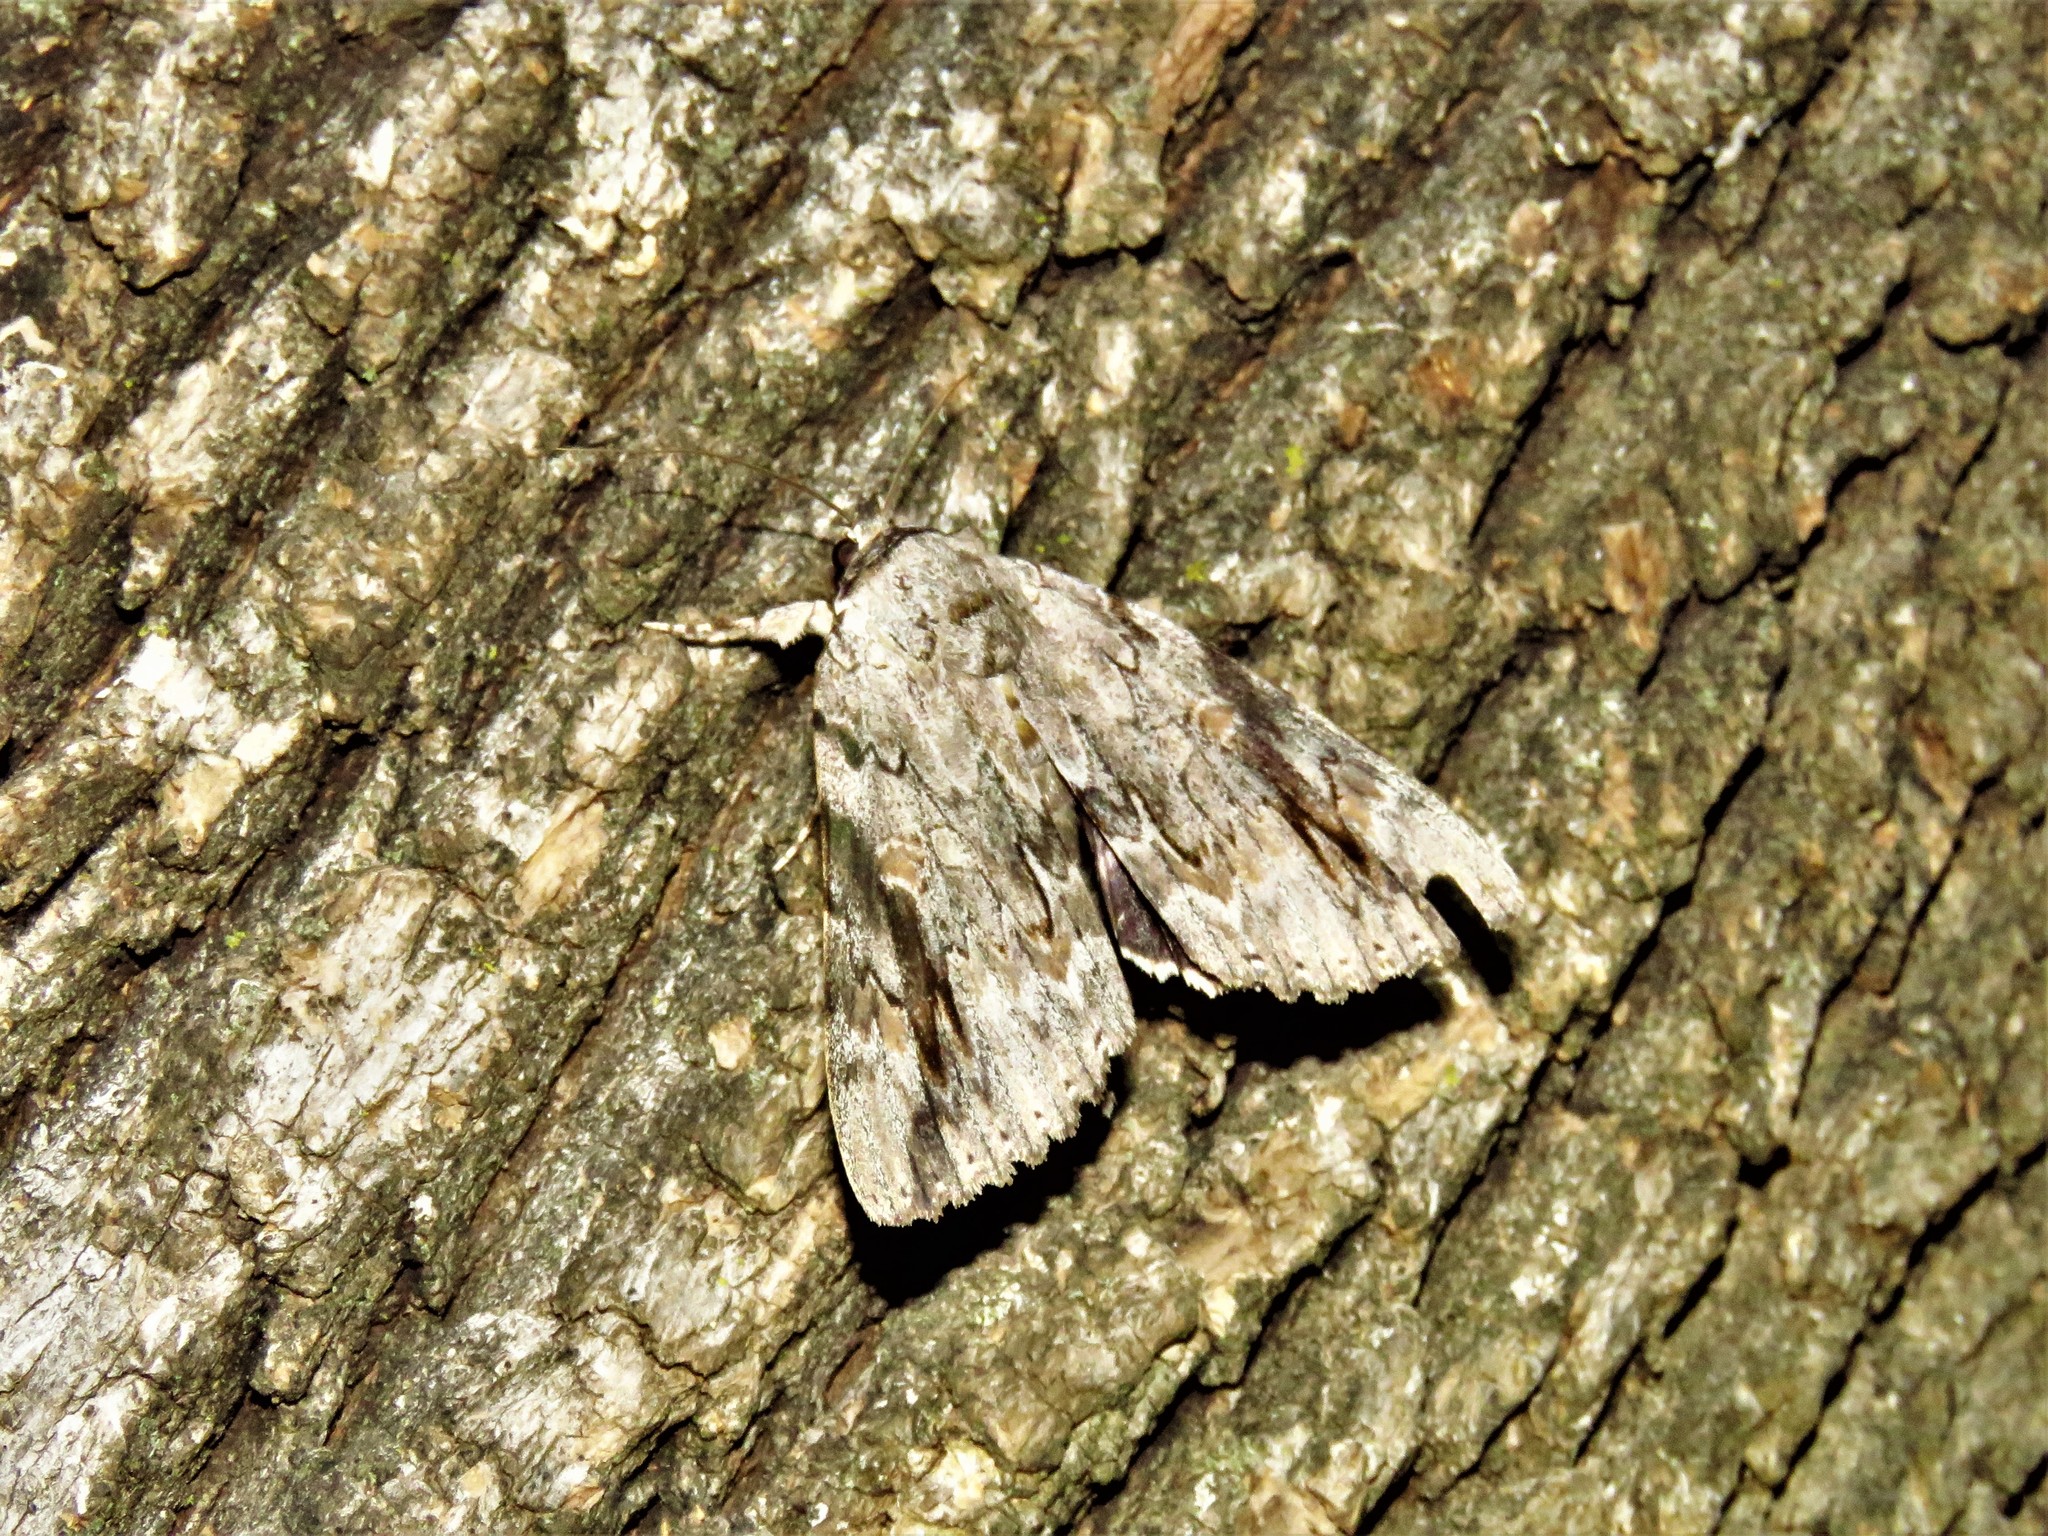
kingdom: Animalia
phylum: Arthropoda
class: Insecta
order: Lepidoptera
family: Erebidae
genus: Catocala
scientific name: Catocala maestosa
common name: Sad underwing
